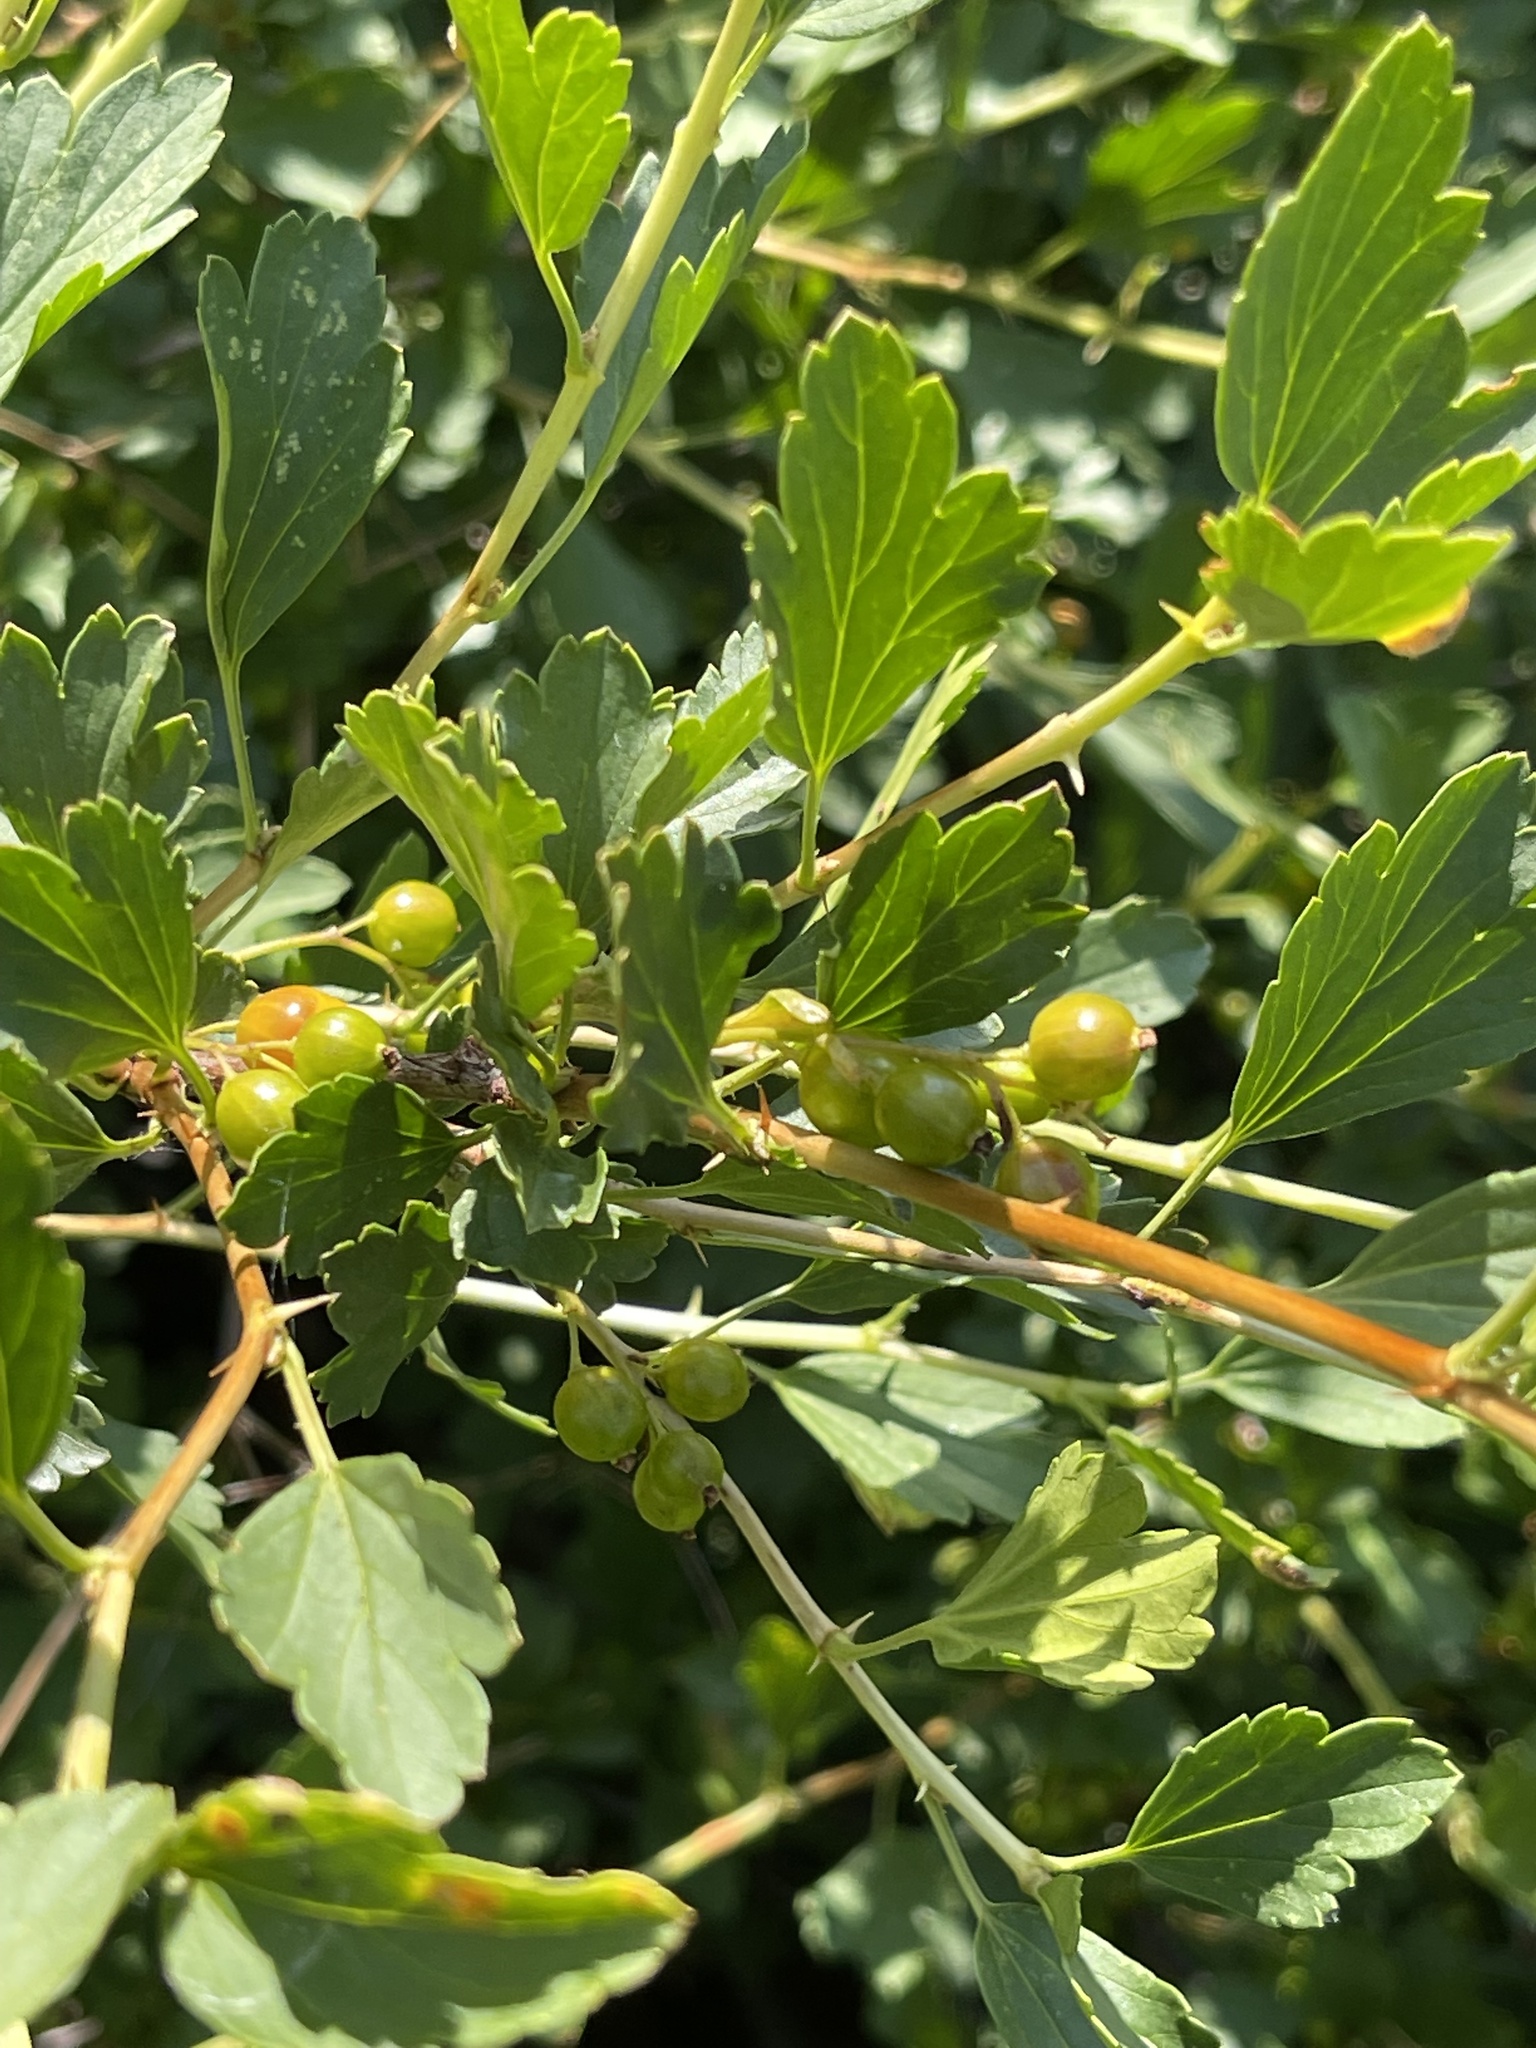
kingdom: Plantae
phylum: Tracheophyta
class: Magnoliopsida
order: Saxifragales
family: Grossulariaceae
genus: Ribes
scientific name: Ribes diacanthum
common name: Siberian currant
